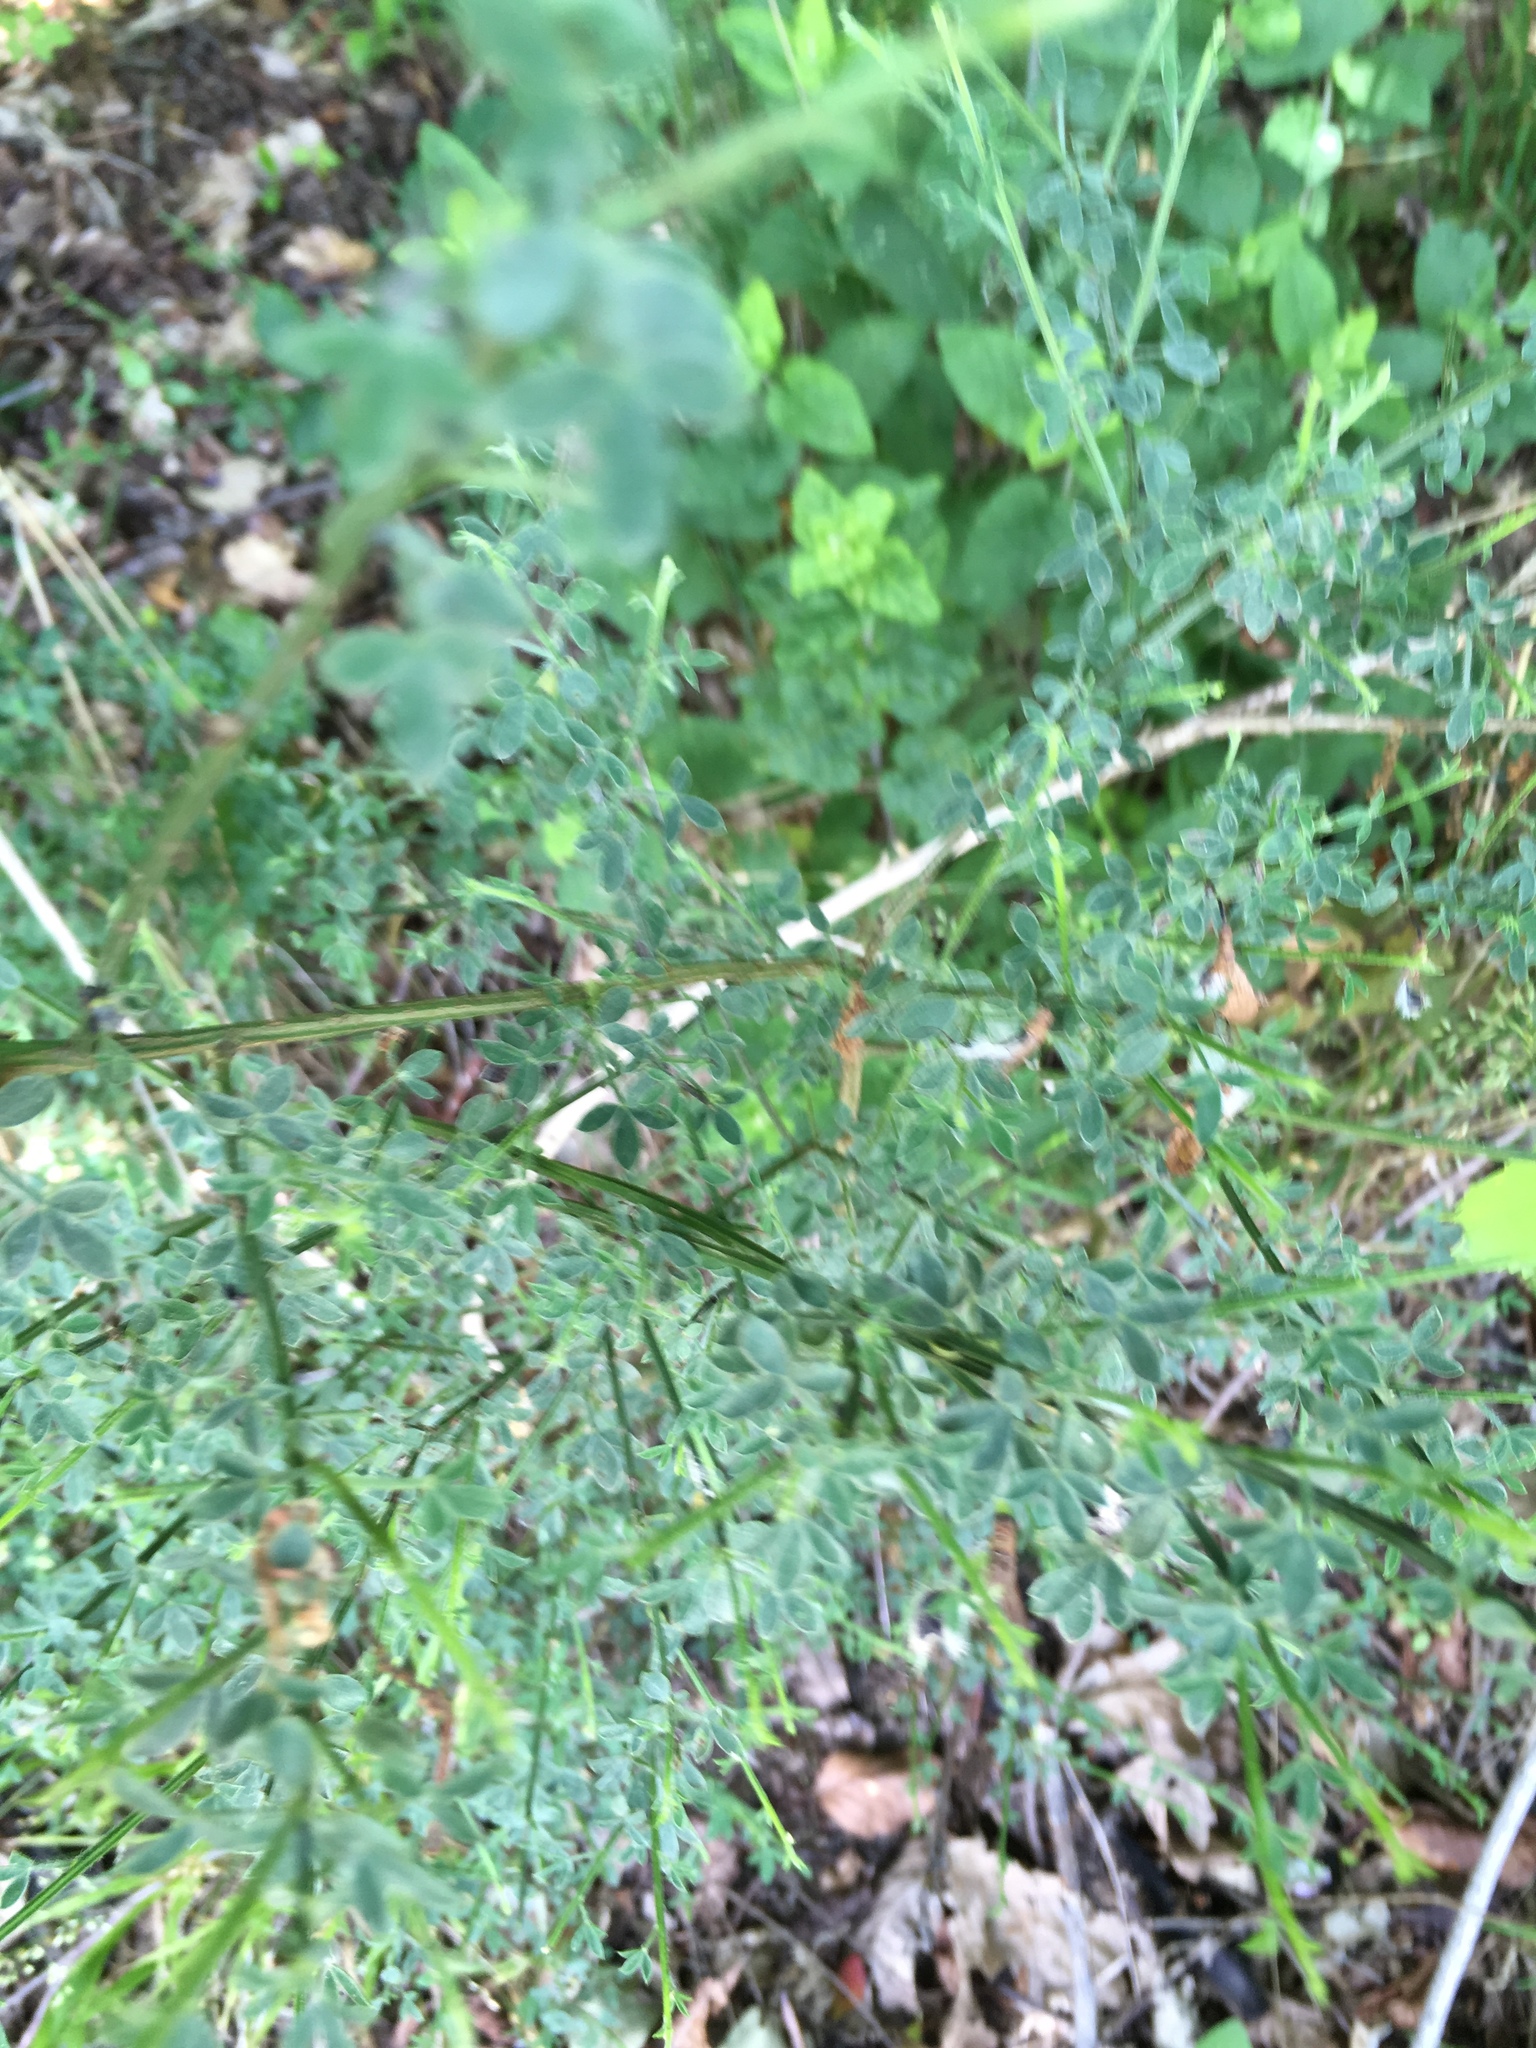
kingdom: Plantae
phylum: Tracheophyta
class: Magnoliopsida
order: Fabales
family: Fabaceae
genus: Cytisus
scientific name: Cytisus scoparius
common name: Scotch broom
